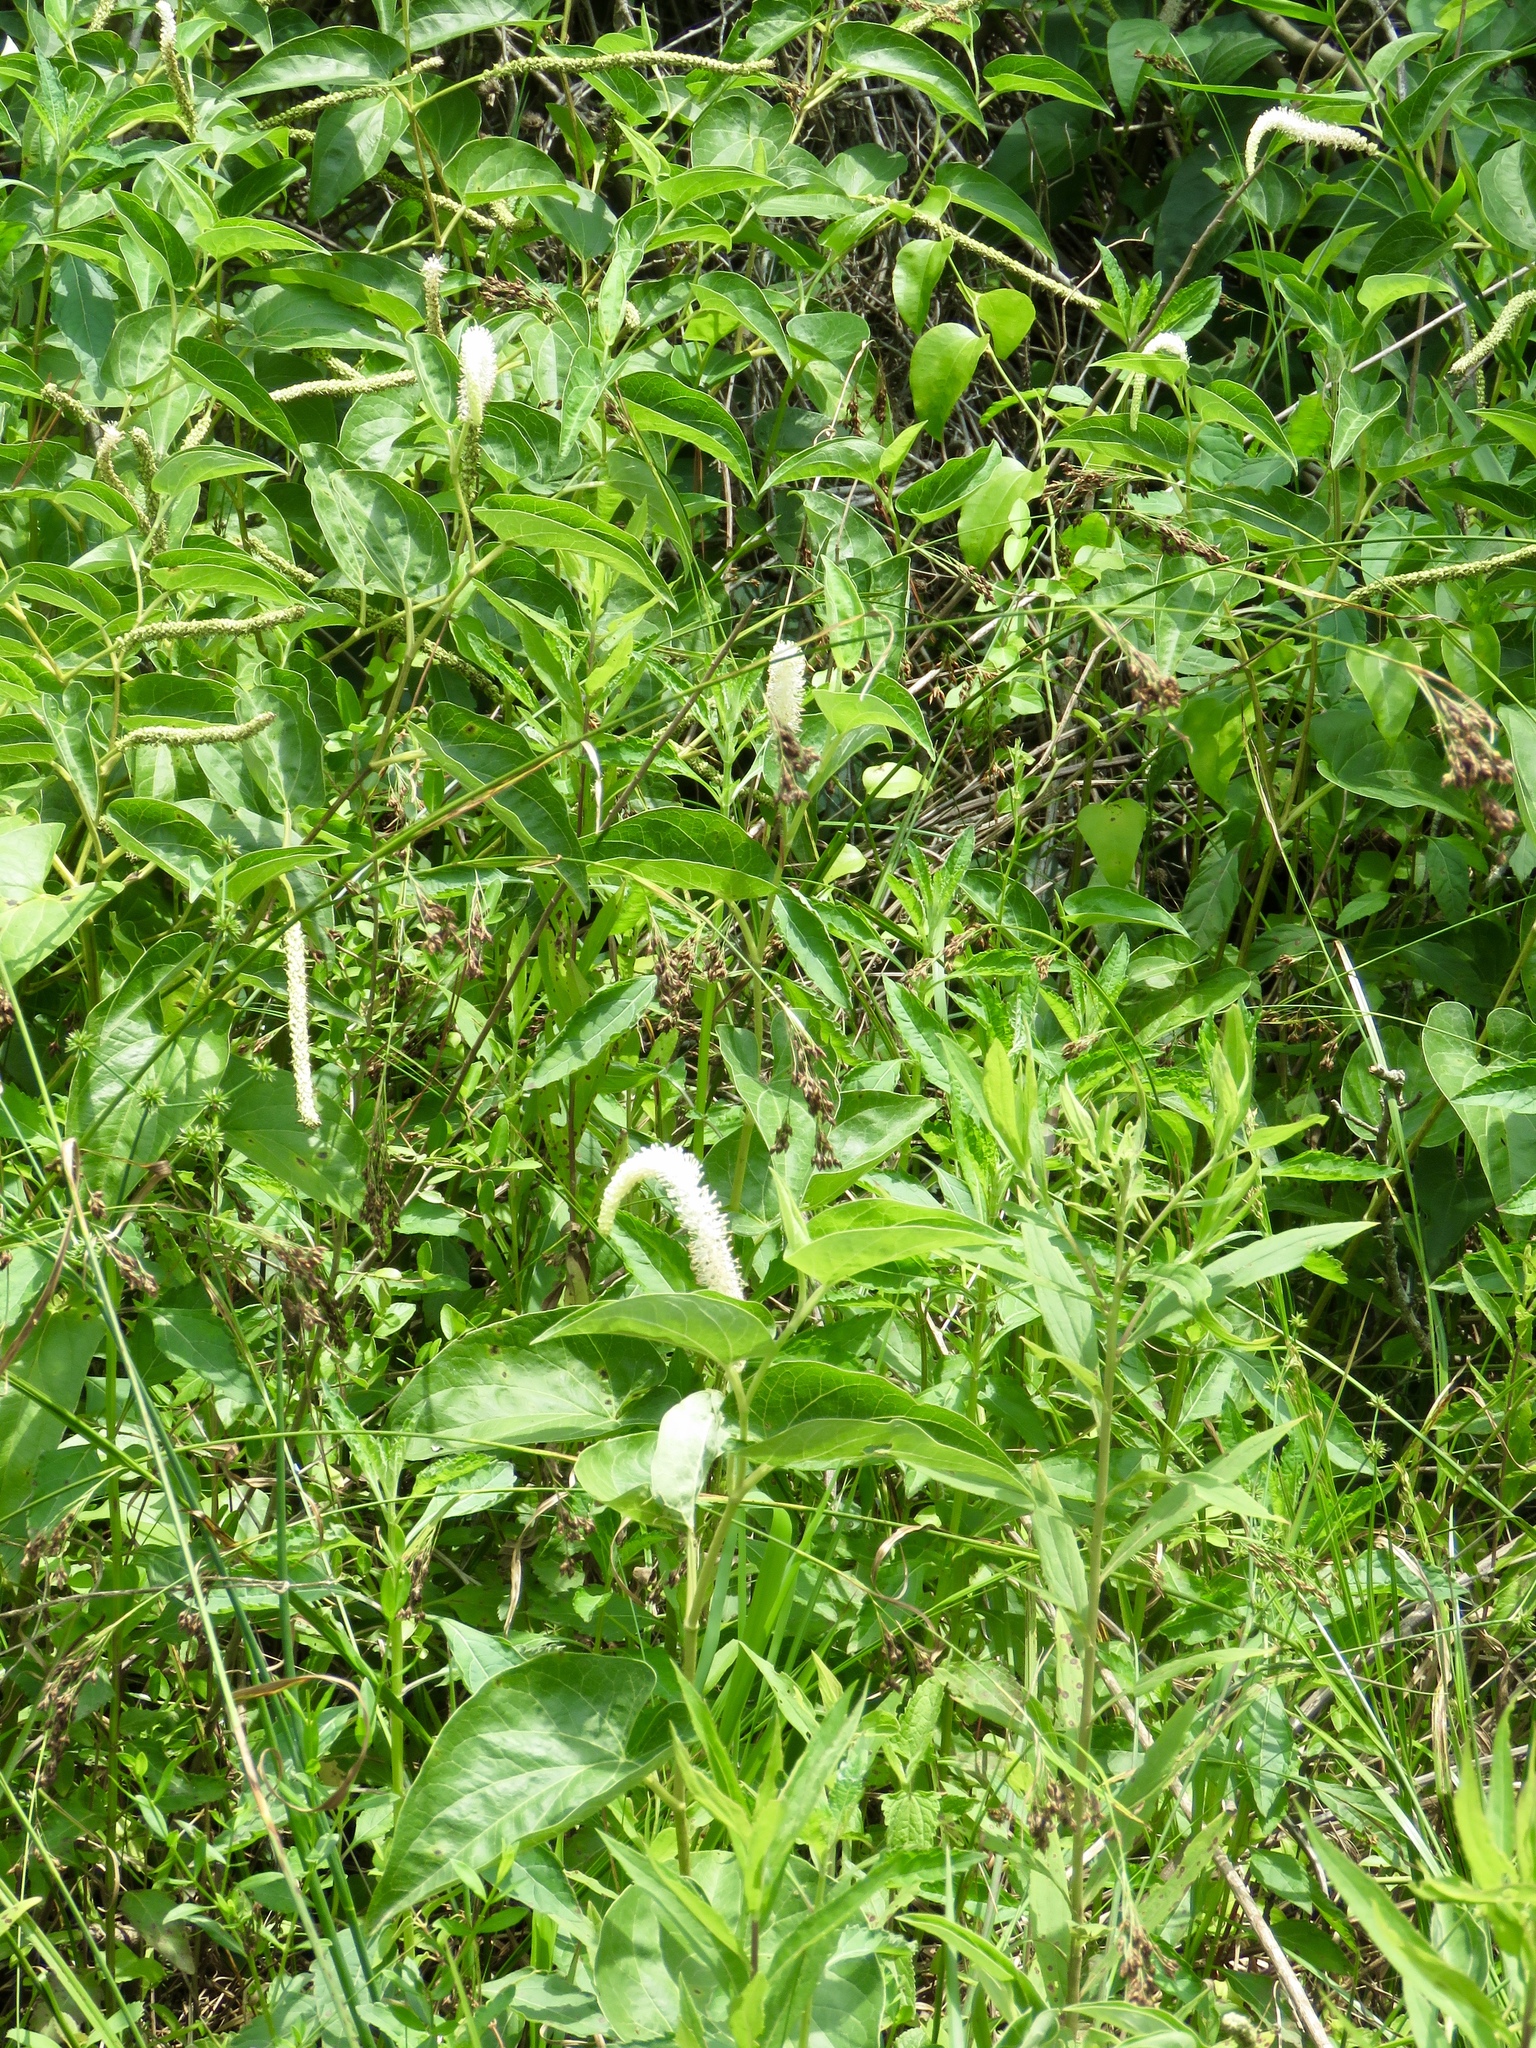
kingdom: Plantae
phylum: Tracheophyta
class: Magnoliopsida
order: Piperales
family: Saururaceae
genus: Saururus
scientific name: Saururus cernuus
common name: Lizard's-tail
